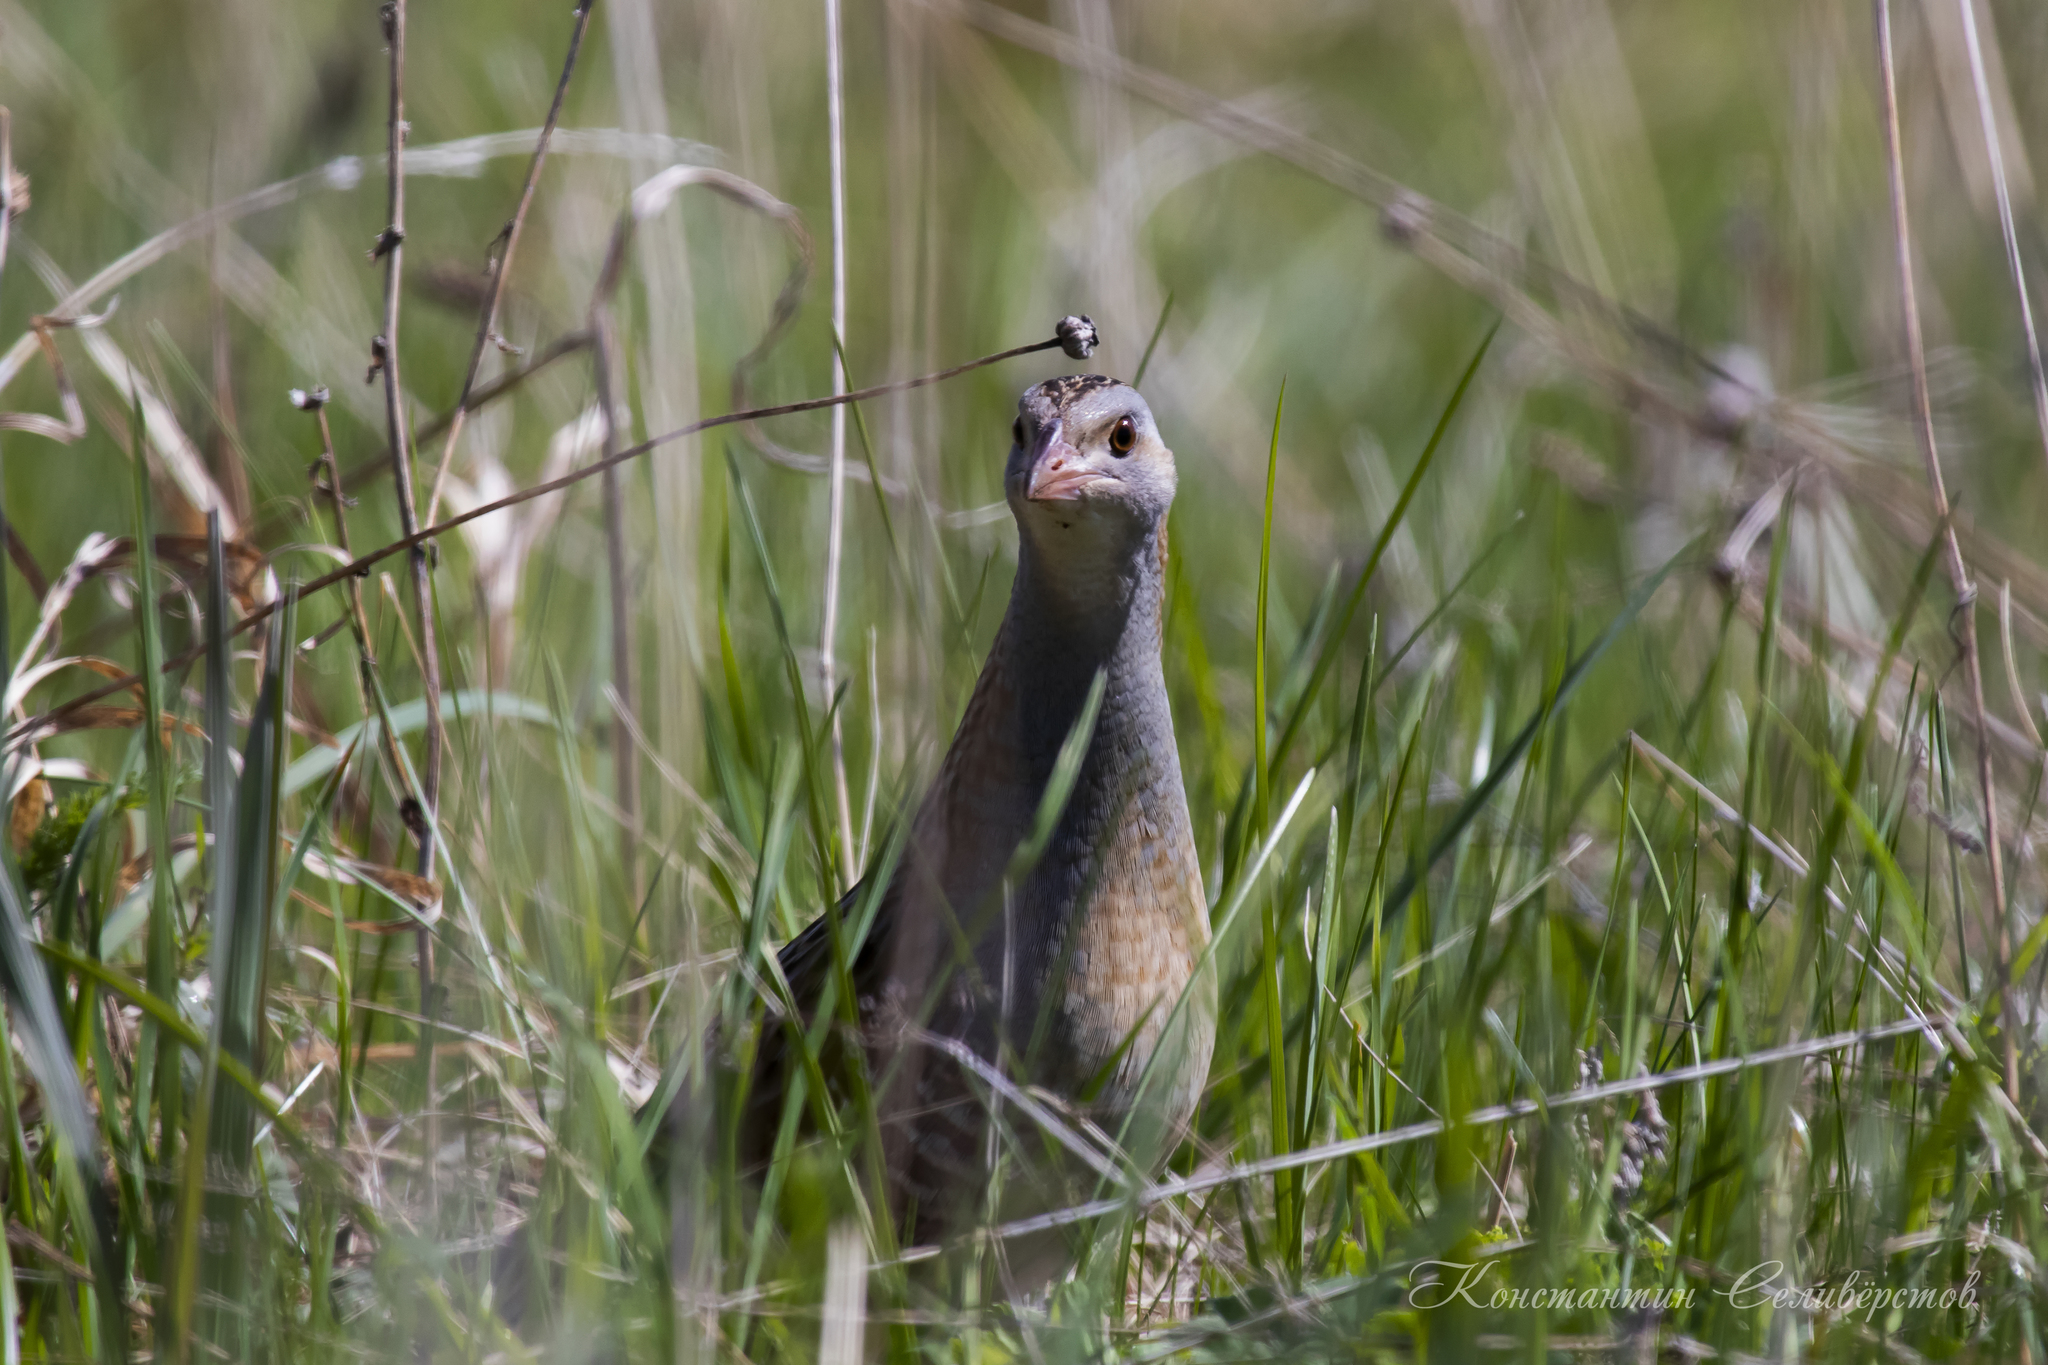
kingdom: Animalia
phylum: Chordata
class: Aves
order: Gruiformes
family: Rallidae
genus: Crex
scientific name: Crex crex
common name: Corn crake
